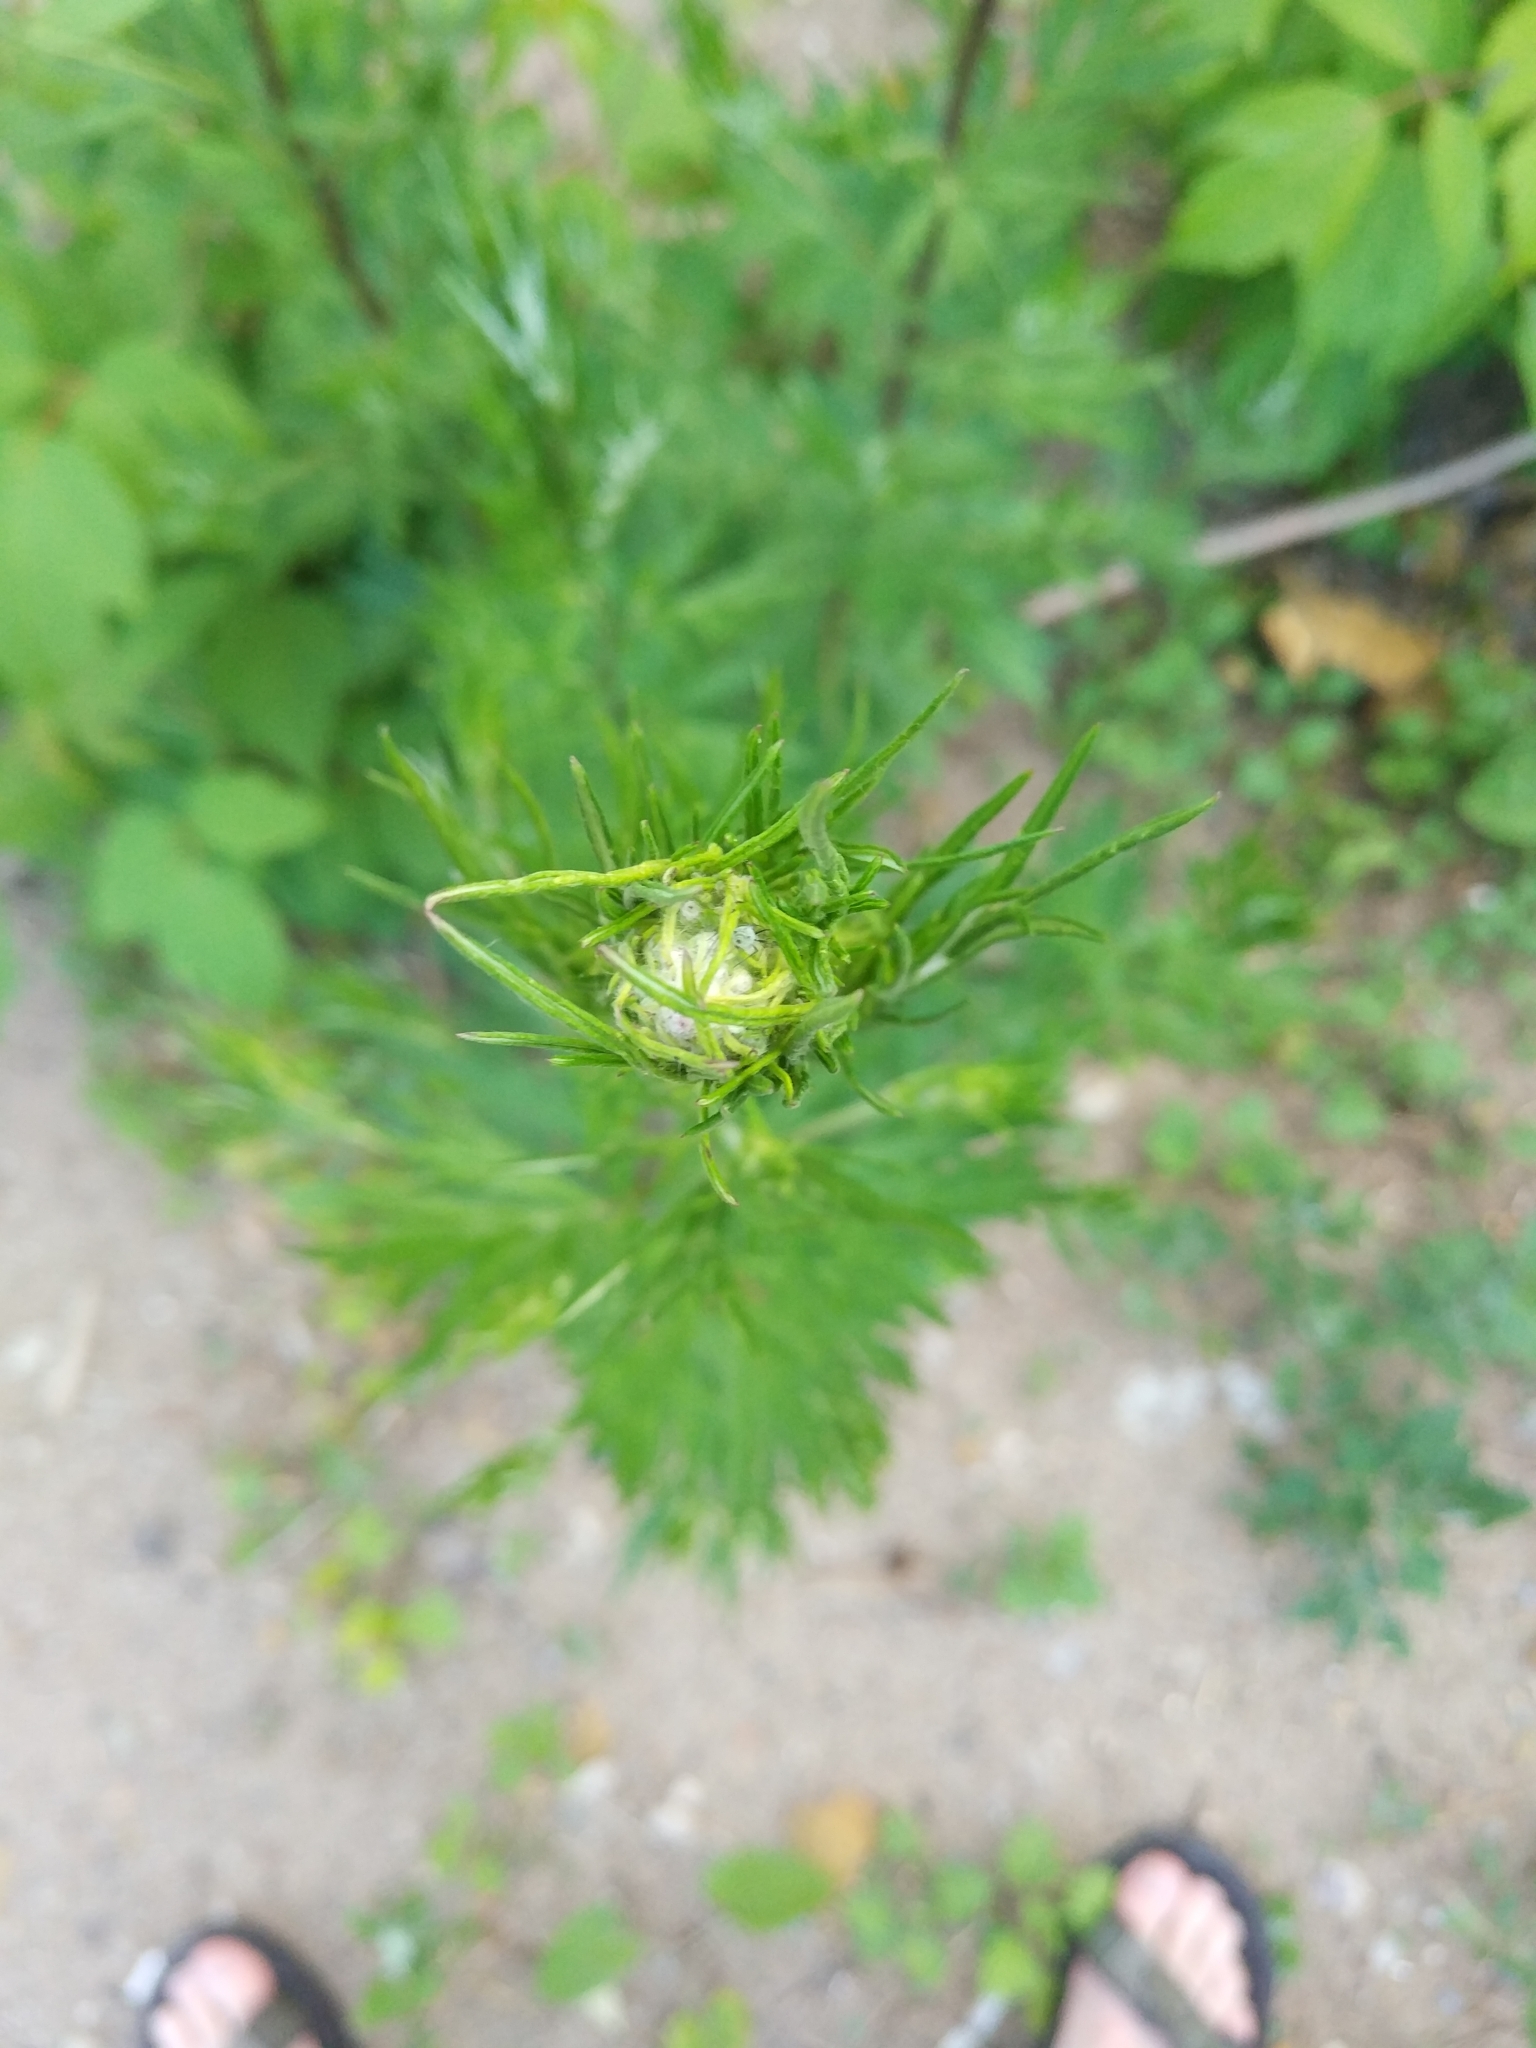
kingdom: Plantae
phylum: Tracheophyta
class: Magnoliopsida
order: Asterales
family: Asteraceae
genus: Artemisia
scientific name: Artemisia vulgaris
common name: Mugwort
